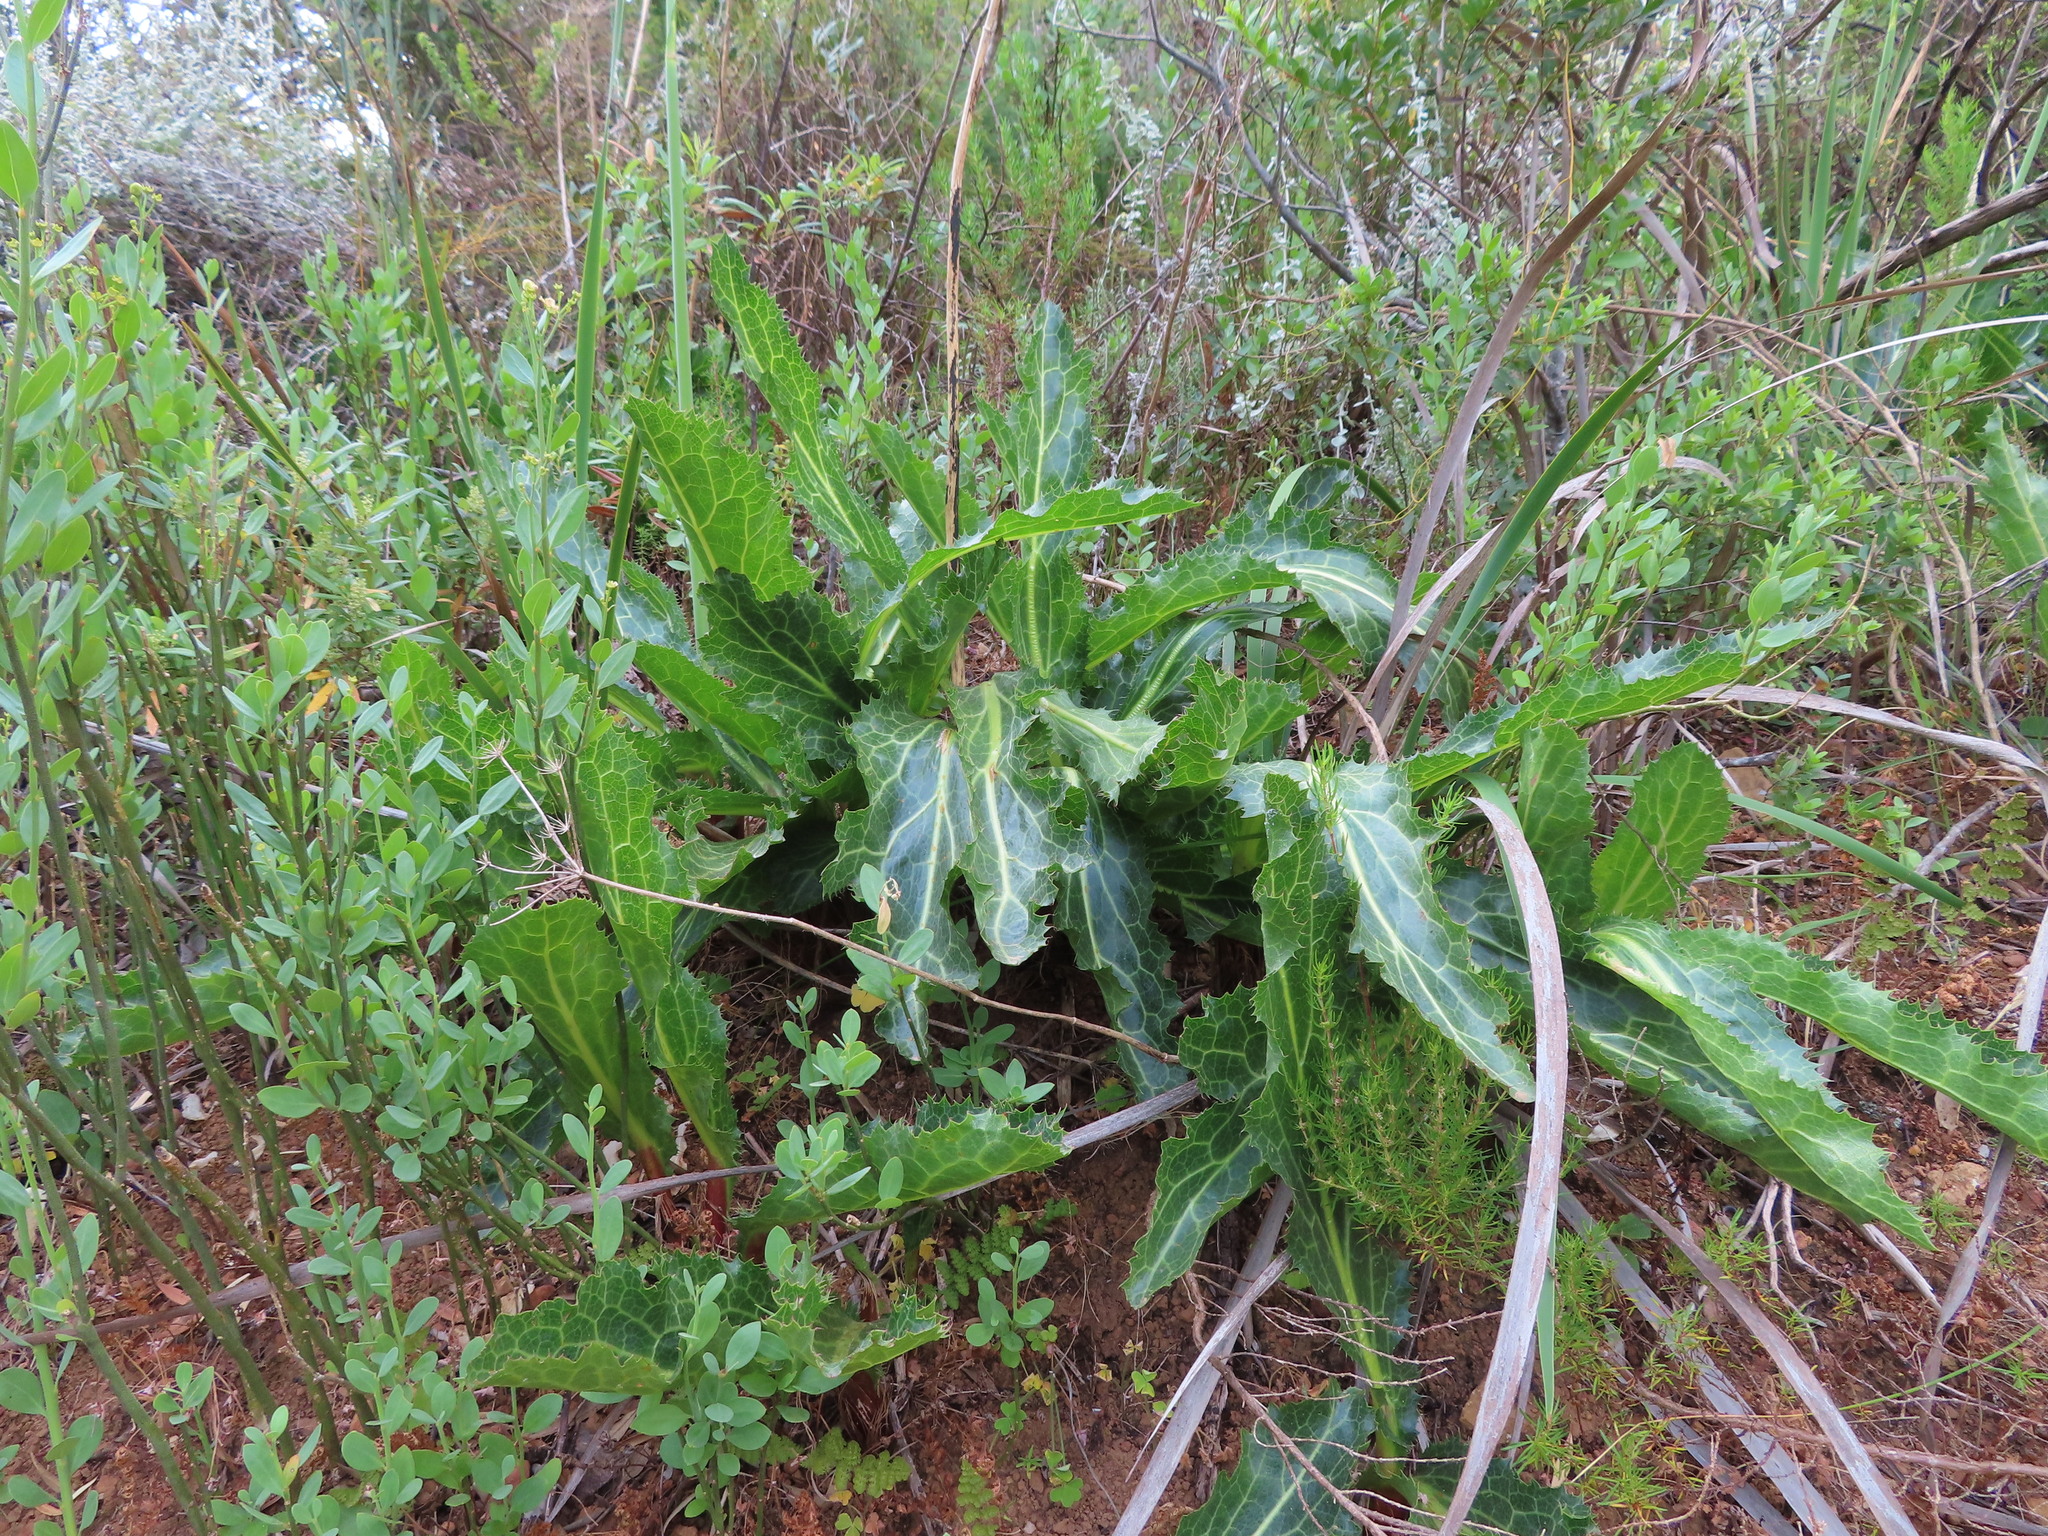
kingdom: Plantae
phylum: Tracheophyta
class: Magnoliopsida
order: Apiales
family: Apiaceae
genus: Lichtensteinia
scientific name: Lichtensteinia lacera
